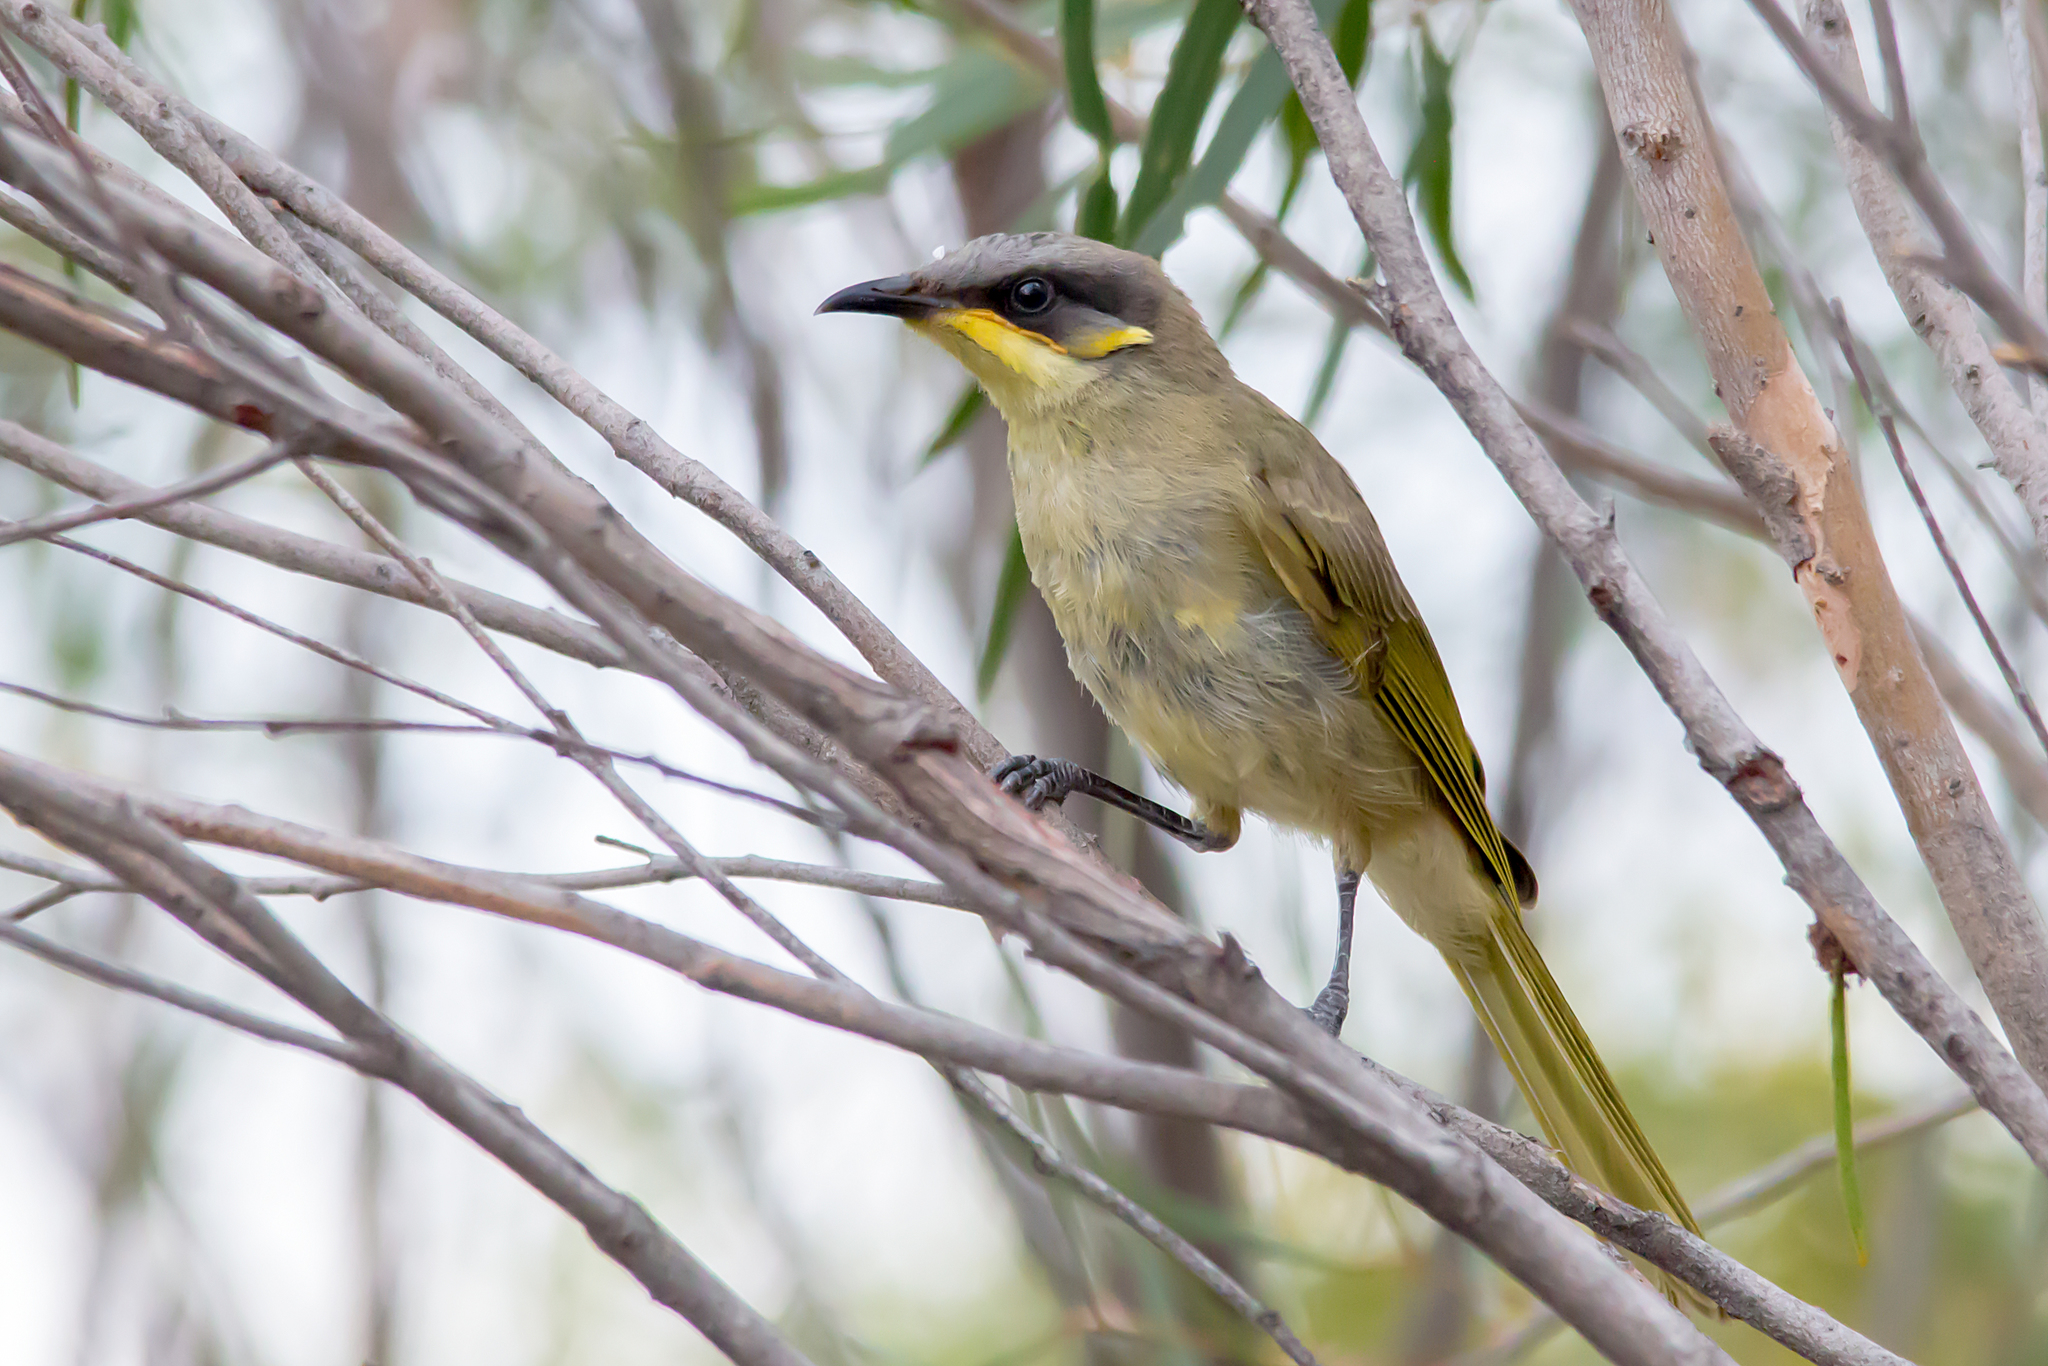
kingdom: Animalia
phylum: Chordata
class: Aves
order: Passeriformes
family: Meliphagidae
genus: Lichenostomus
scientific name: Lichenostomus cratitius
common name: Purple-gaped honeyeater
